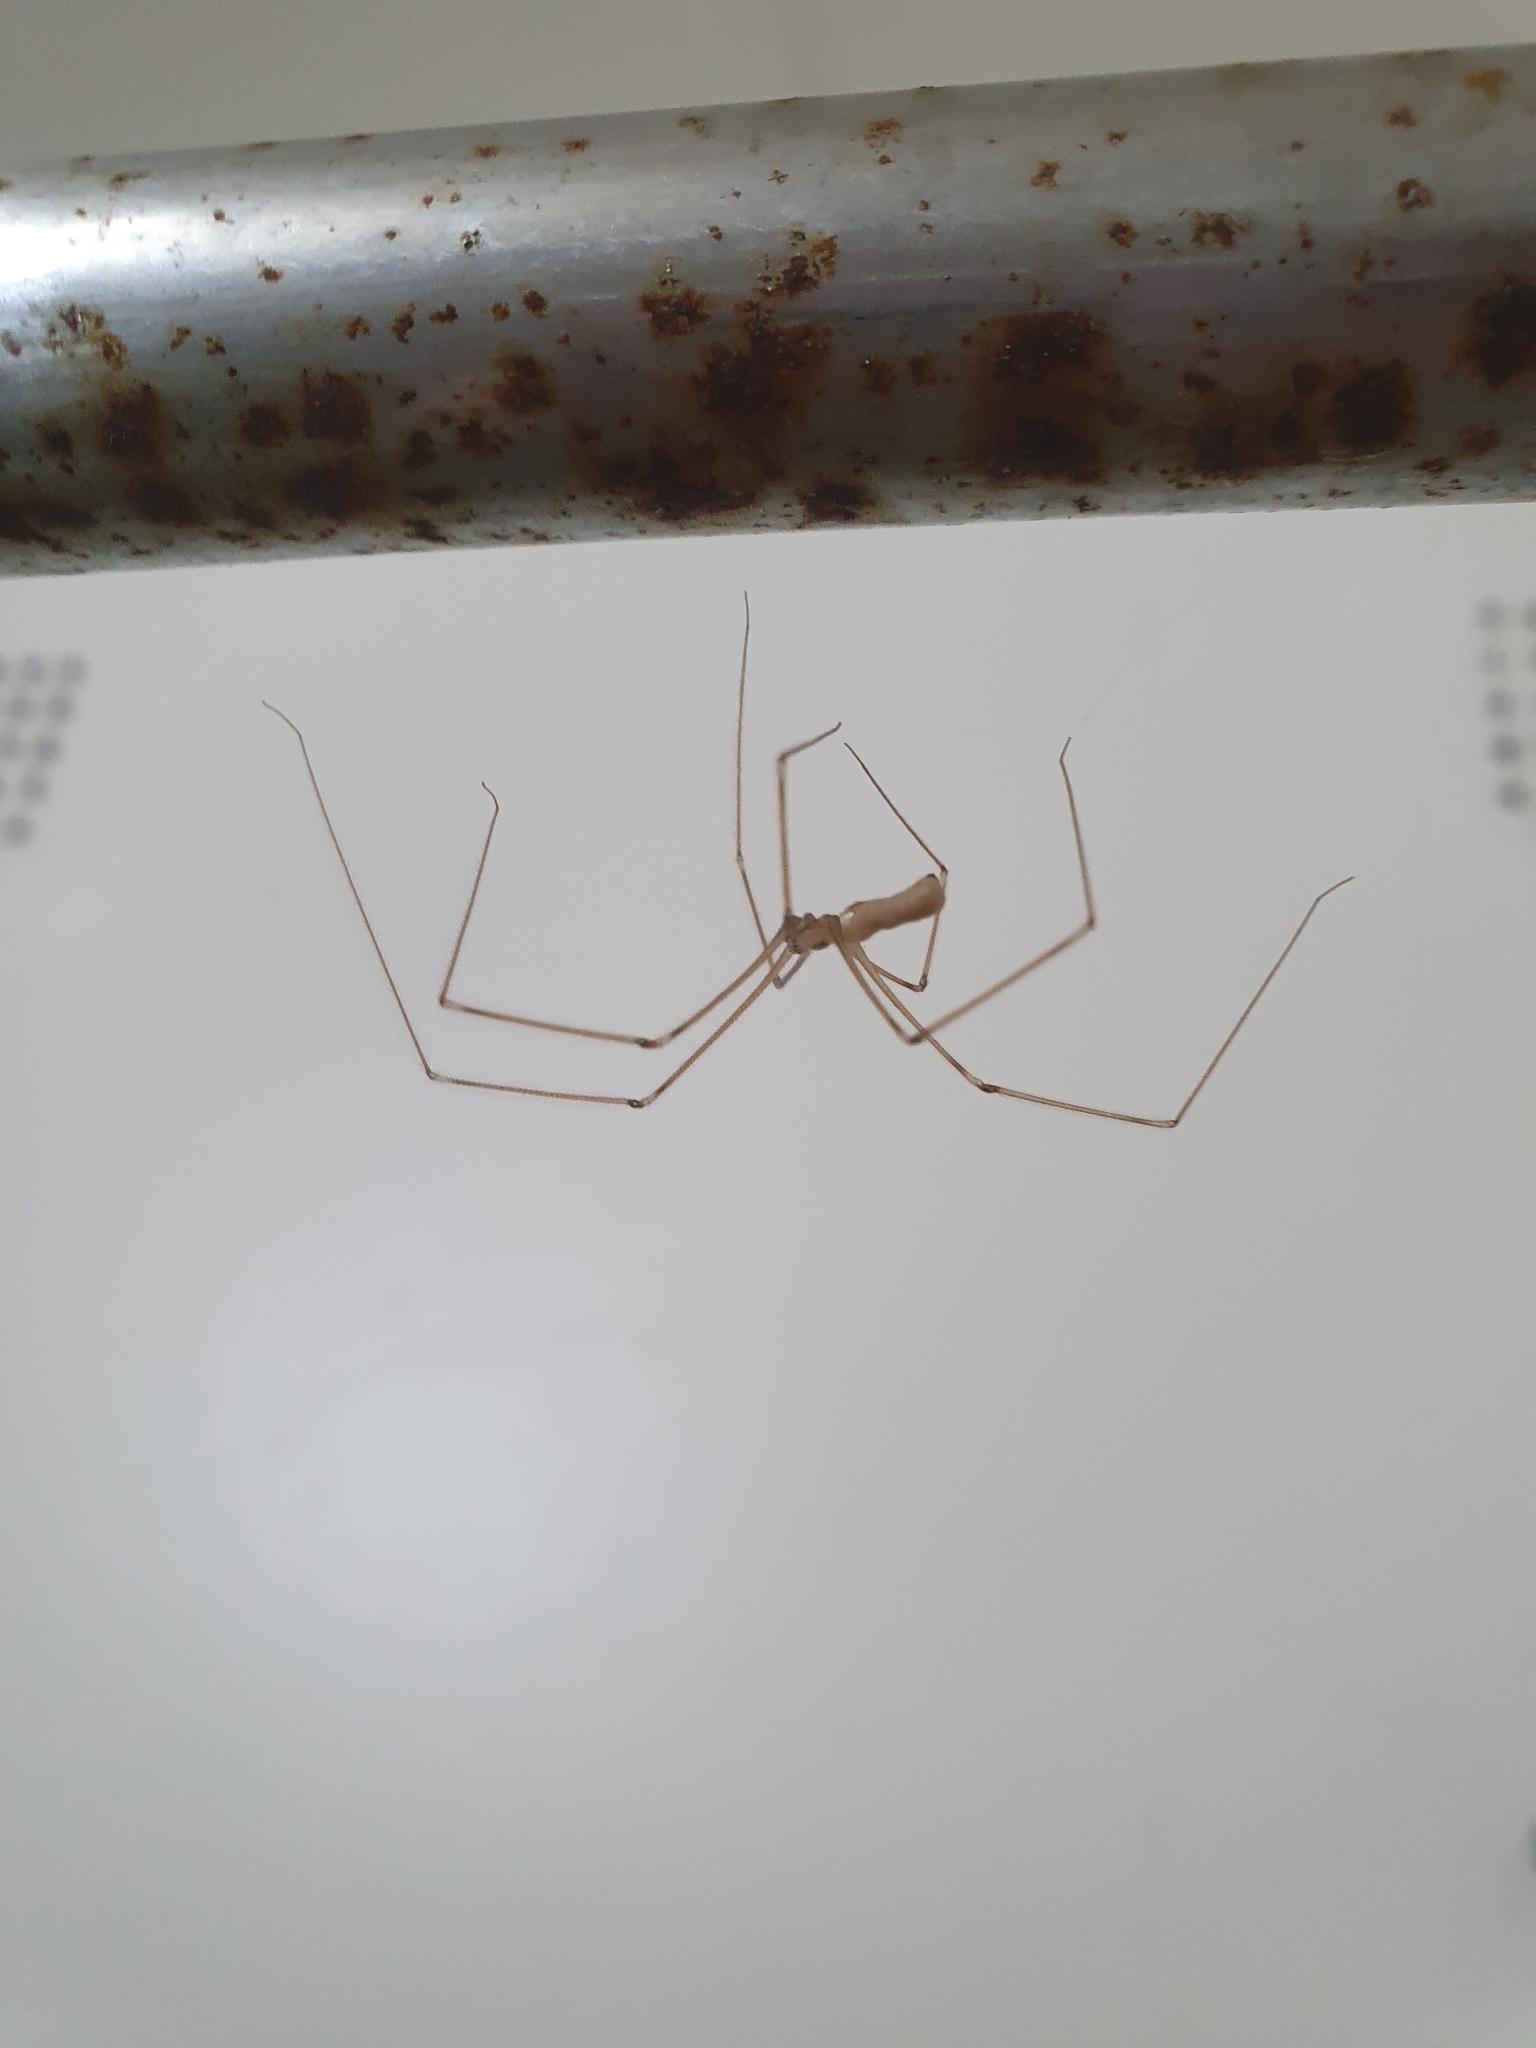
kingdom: Animalia
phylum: Arthropoda
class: Arachnida
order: Araneae
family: Pholcidae
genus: Pholcus
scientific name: Pholcus phalangioides
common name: Longbodied cellar spider
